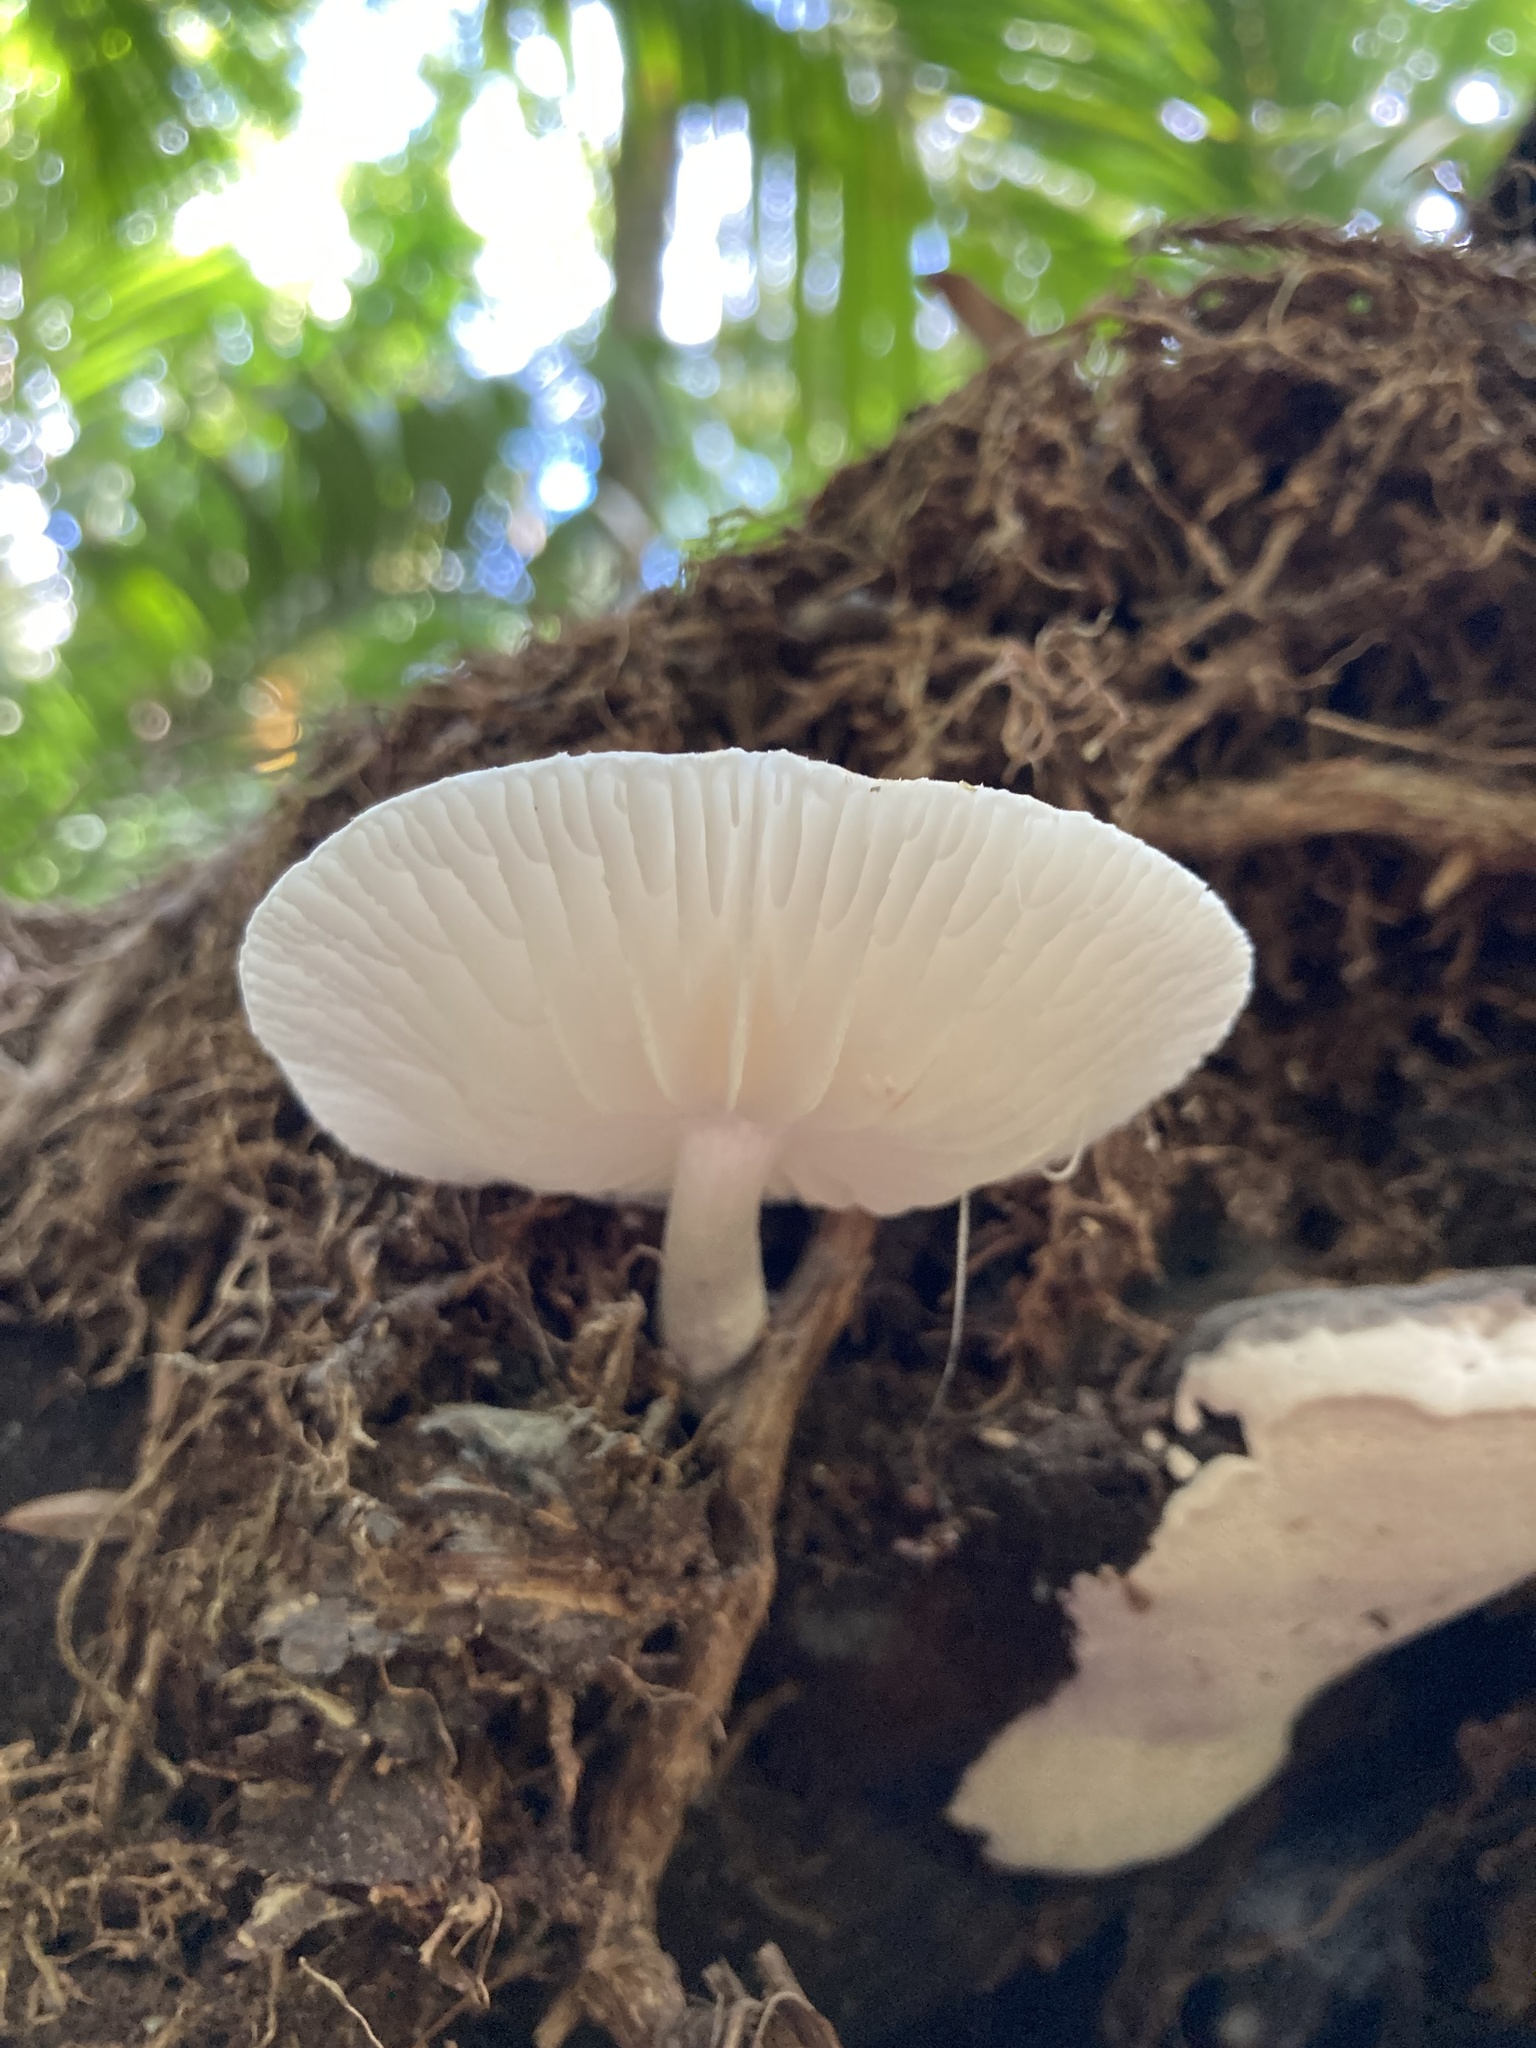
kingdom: Fungi
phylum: Basidiomycota
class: Agaricomycetes
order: Agaricales
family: Physalacriaceae
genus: Oudemansiella
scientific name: Oudemansiella australis
